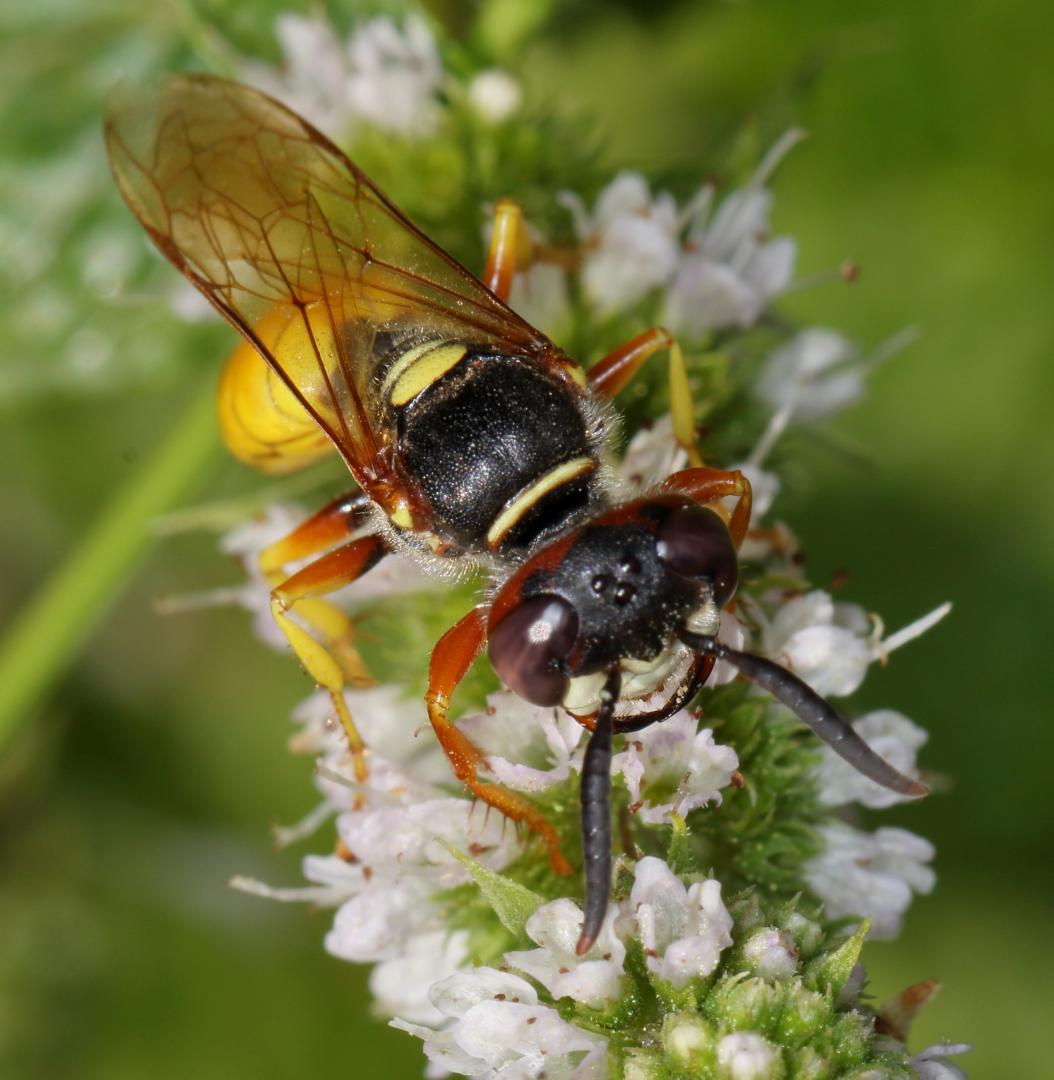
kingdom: Animalia
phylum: Arthropoda
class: Insecta
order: Hymenoptera
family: Crabronidae
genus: Philanthus
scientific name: Philanthus triangulum
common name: Bee wolf
